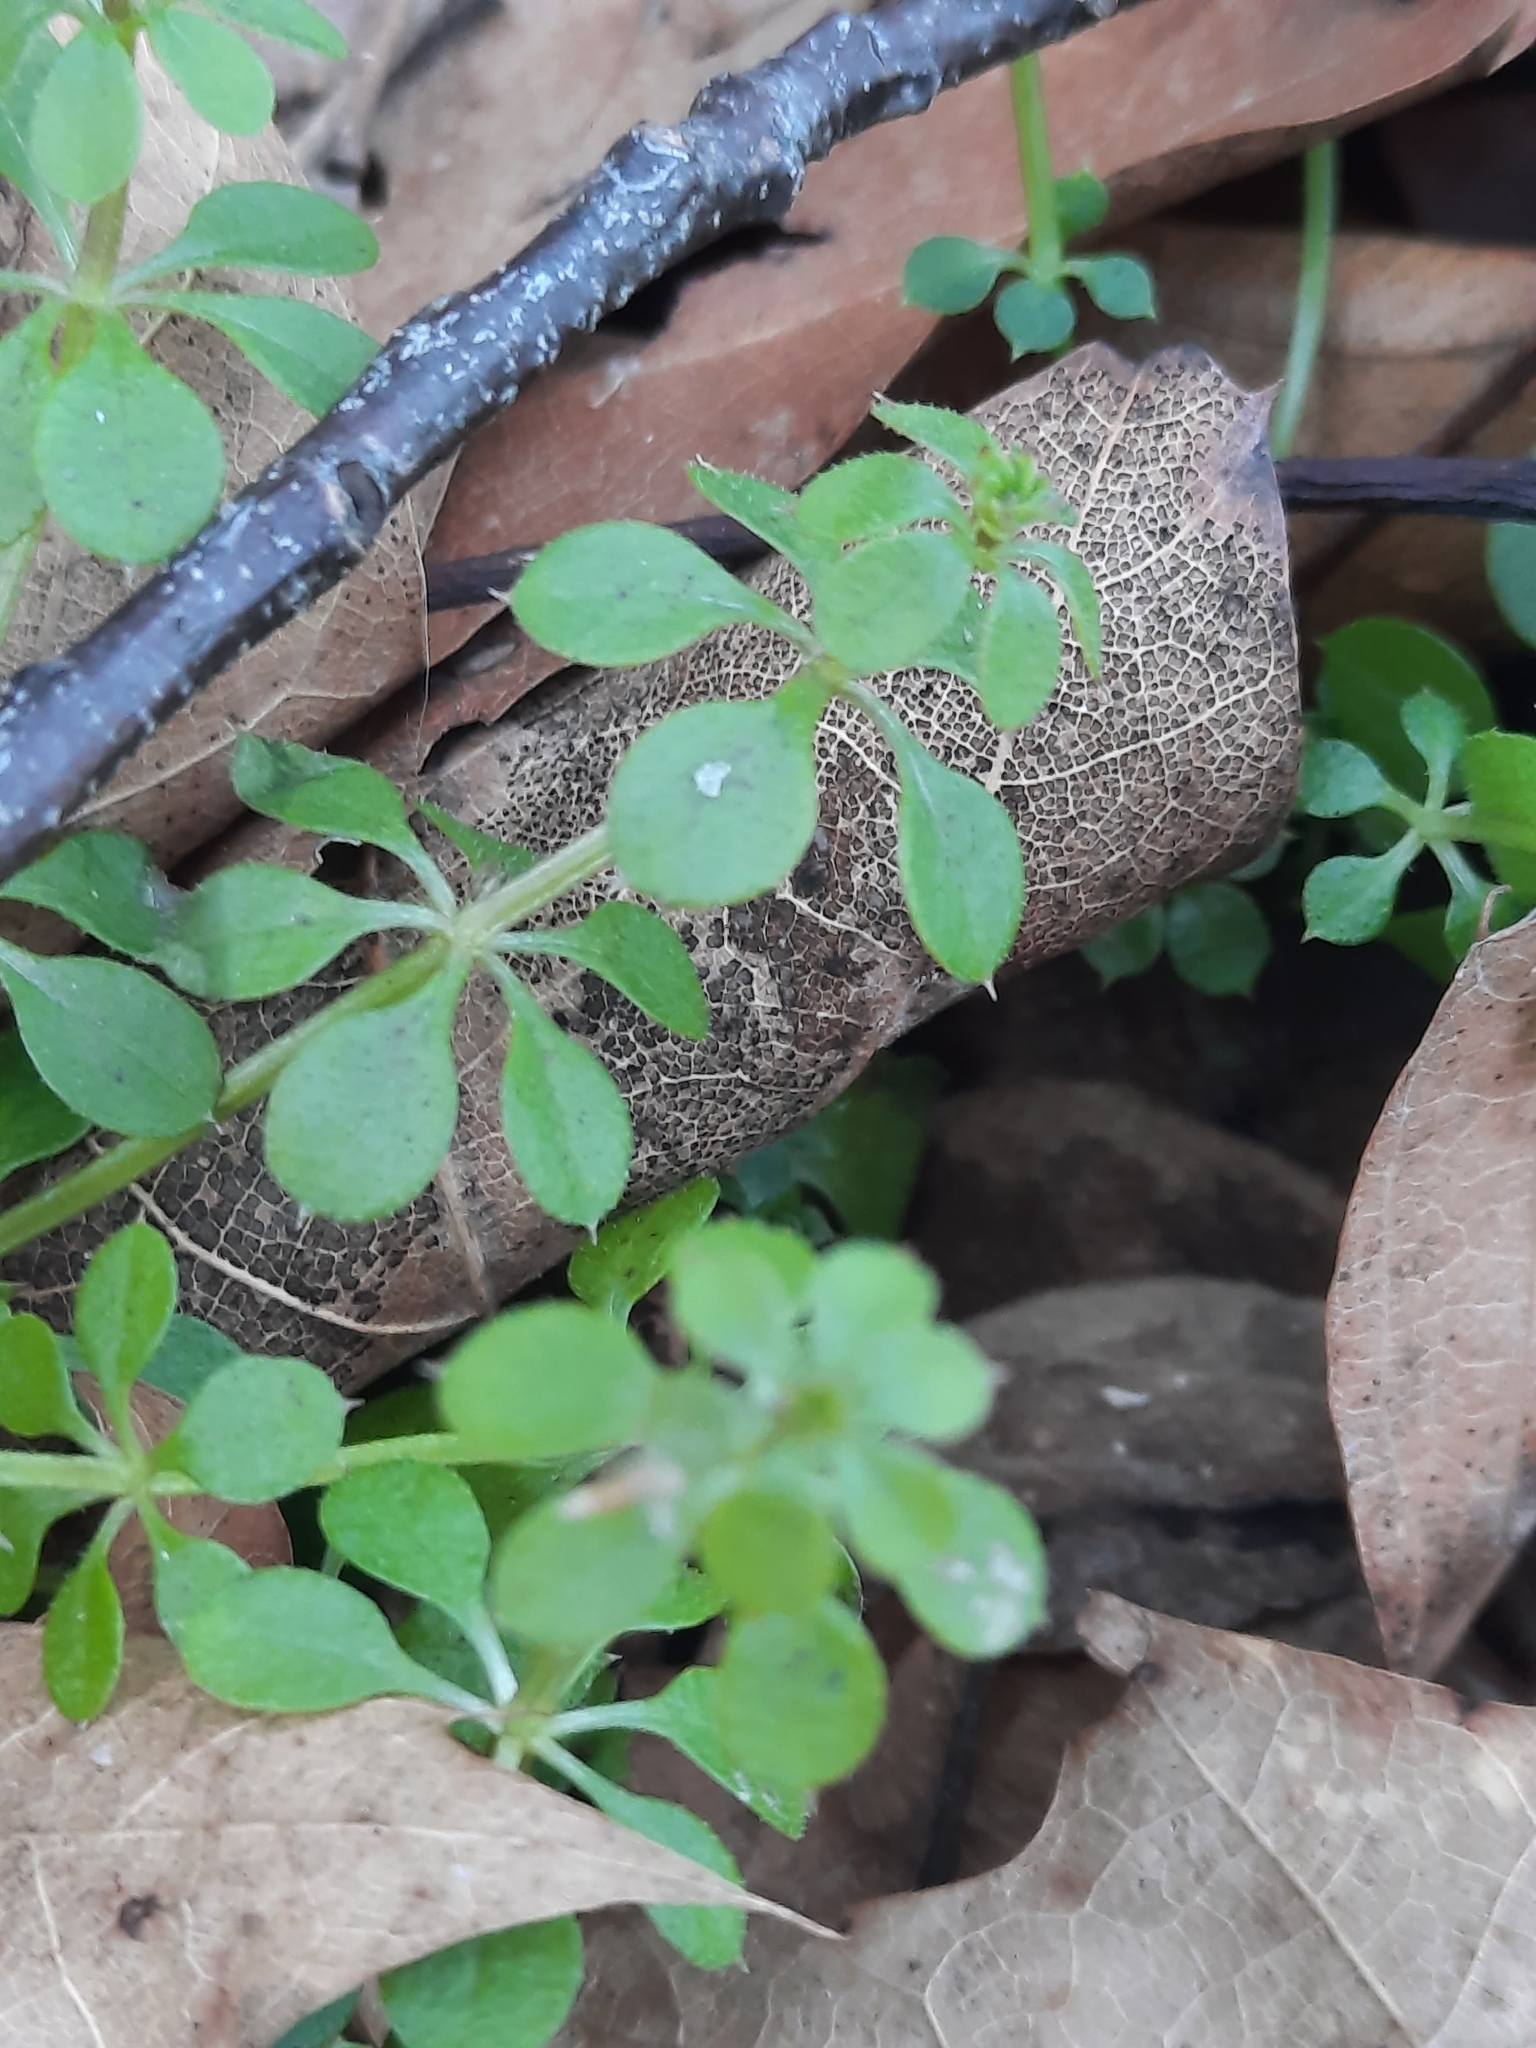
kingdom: Plantae
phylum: Tracheophyta
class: Magnoliopsida
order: Gentianales
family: Rubiaceae
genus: Galium
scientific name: Galium aparine
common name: Cleavers
